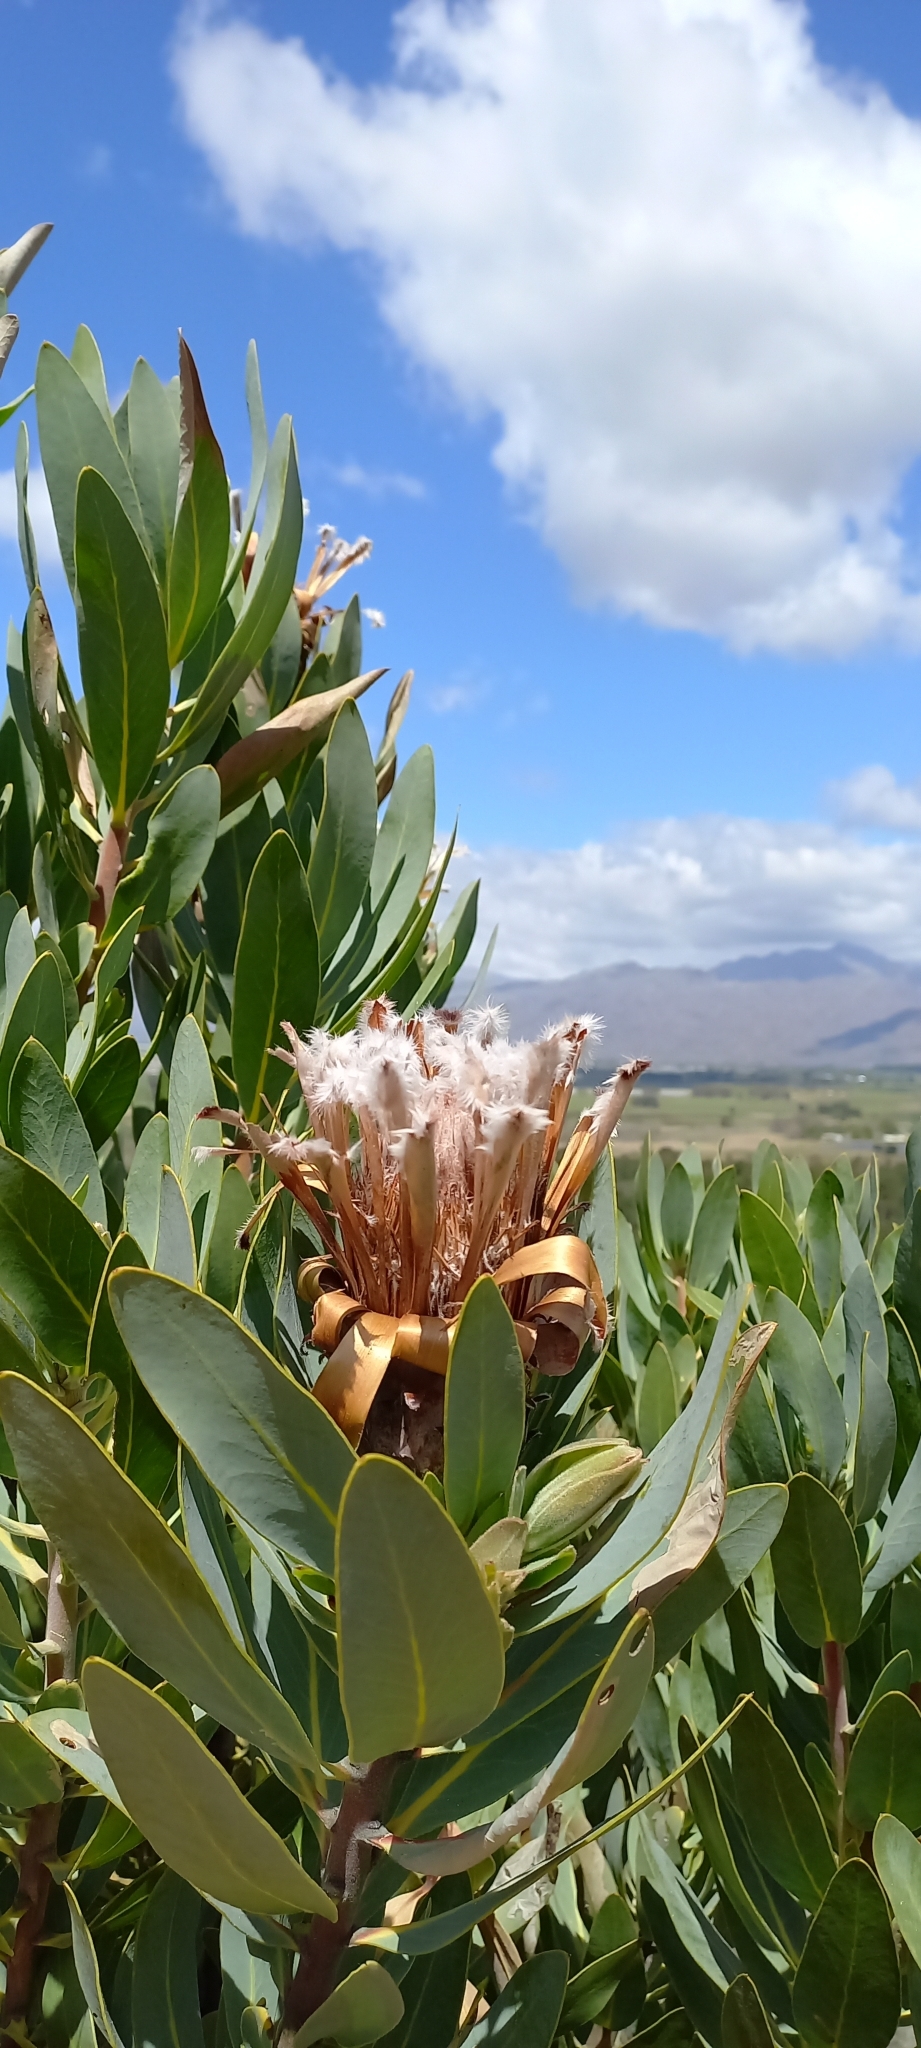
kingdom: Plantae
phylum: Tracheophyta
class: Magnoliopsida
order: Proteales
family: Proteaceae
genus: Protea
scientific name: Protea laurifolia
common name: Grey-leaf sugarbsh
